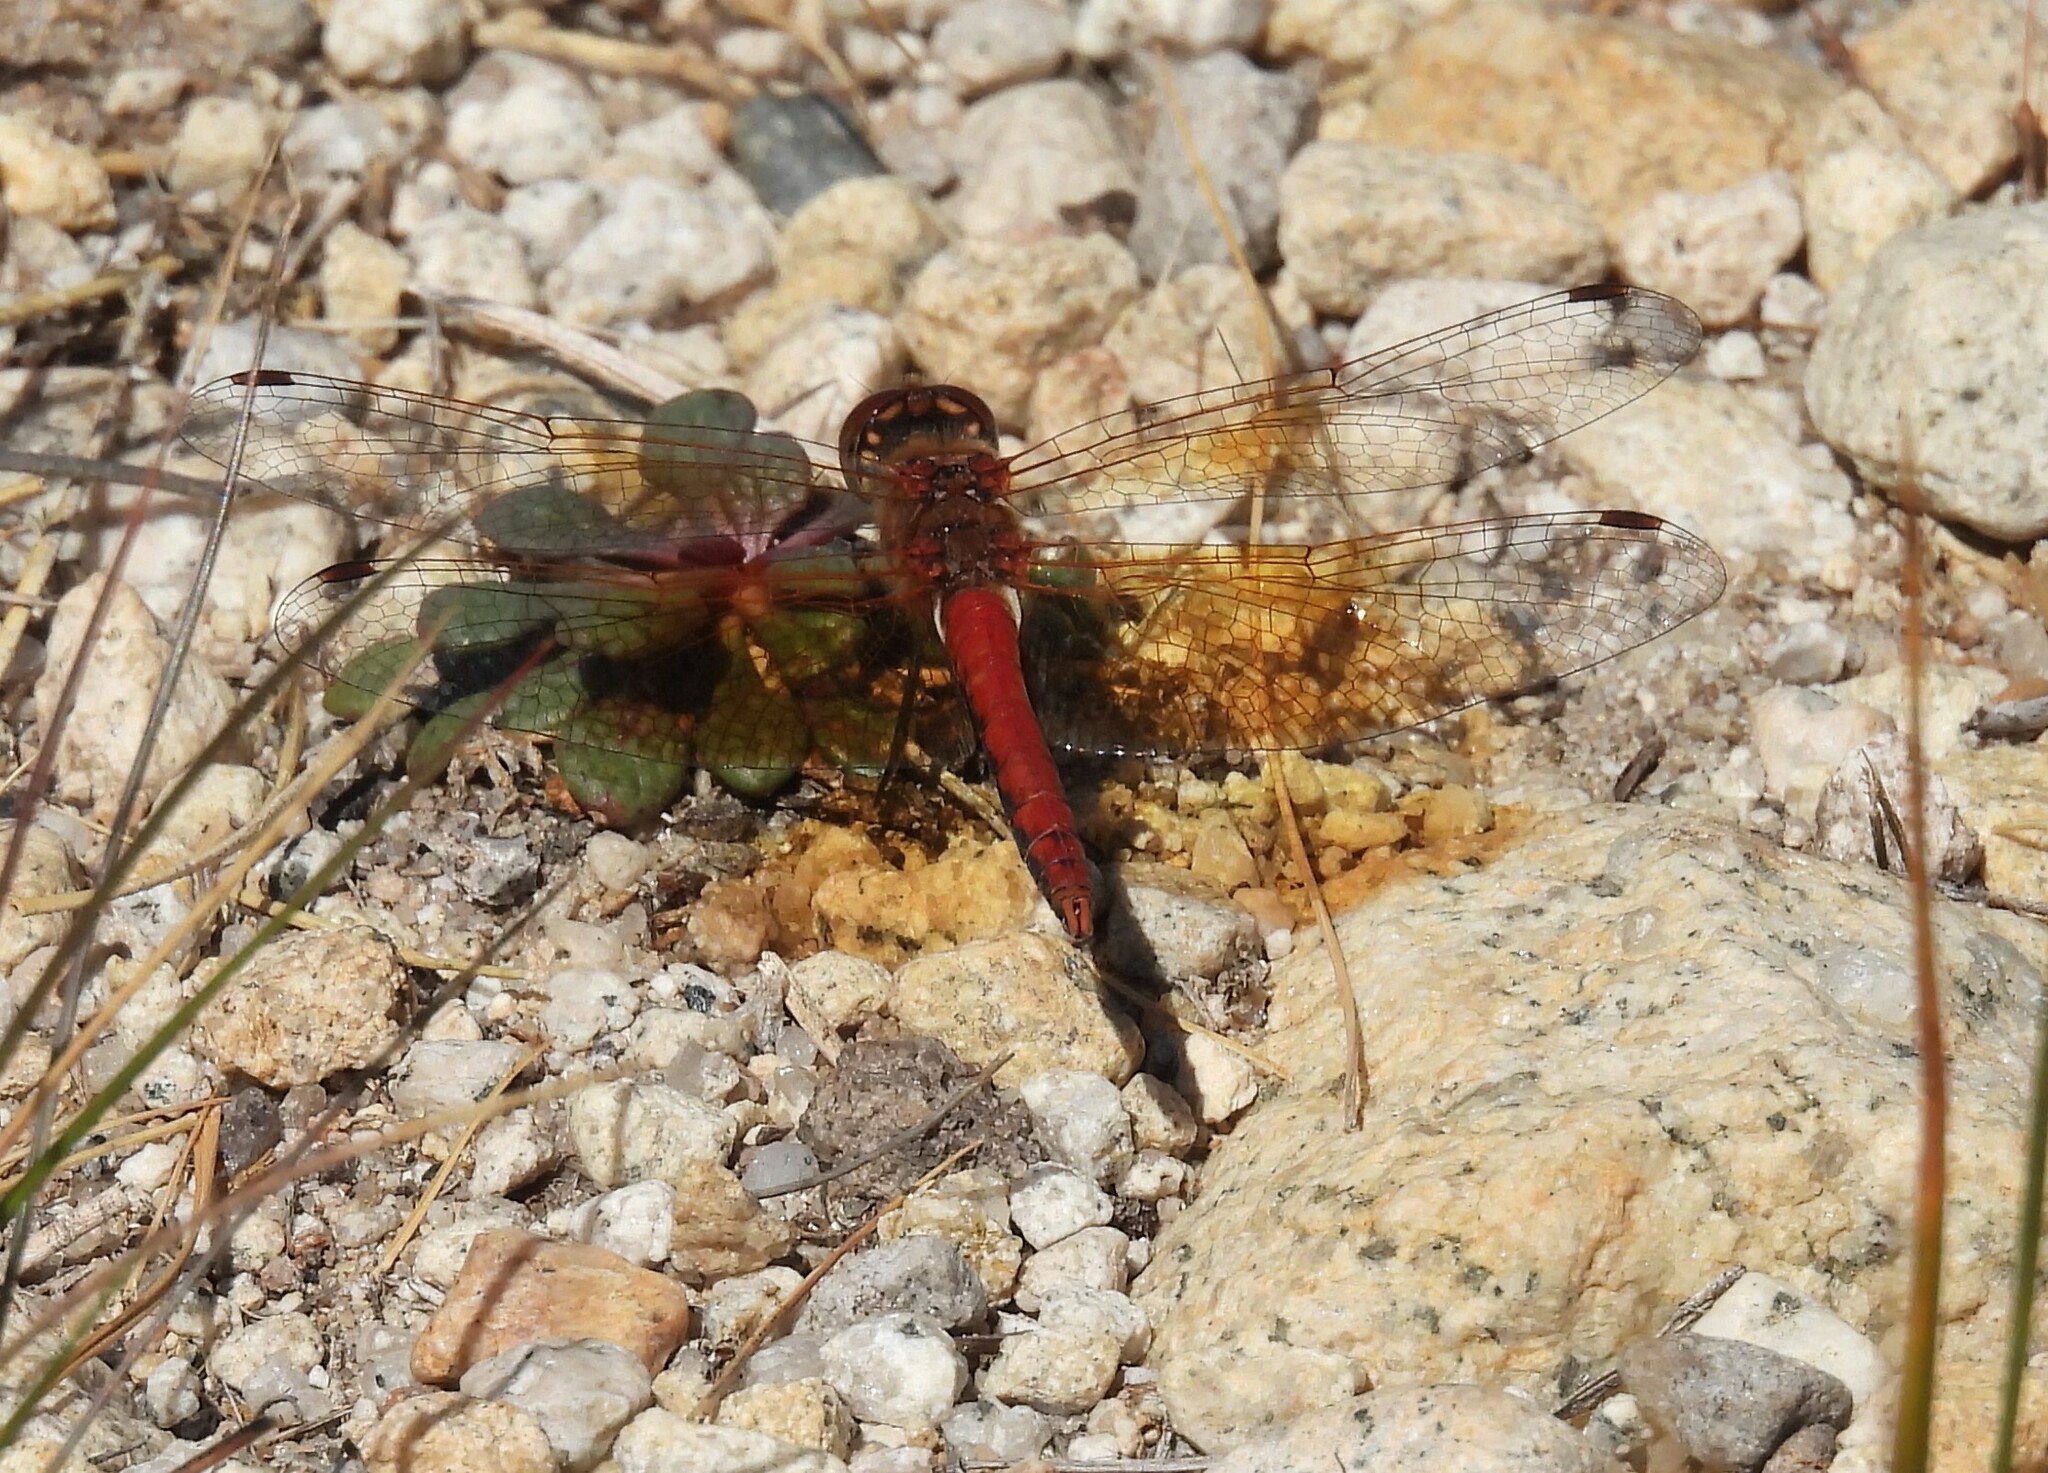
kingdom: Animalia
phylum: Arthropoda
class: Insecta
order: Odonata
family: Libellulidae
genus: Sympetrum
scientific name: Sympetrum semicinctum
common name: Band-winged meadowhawk
